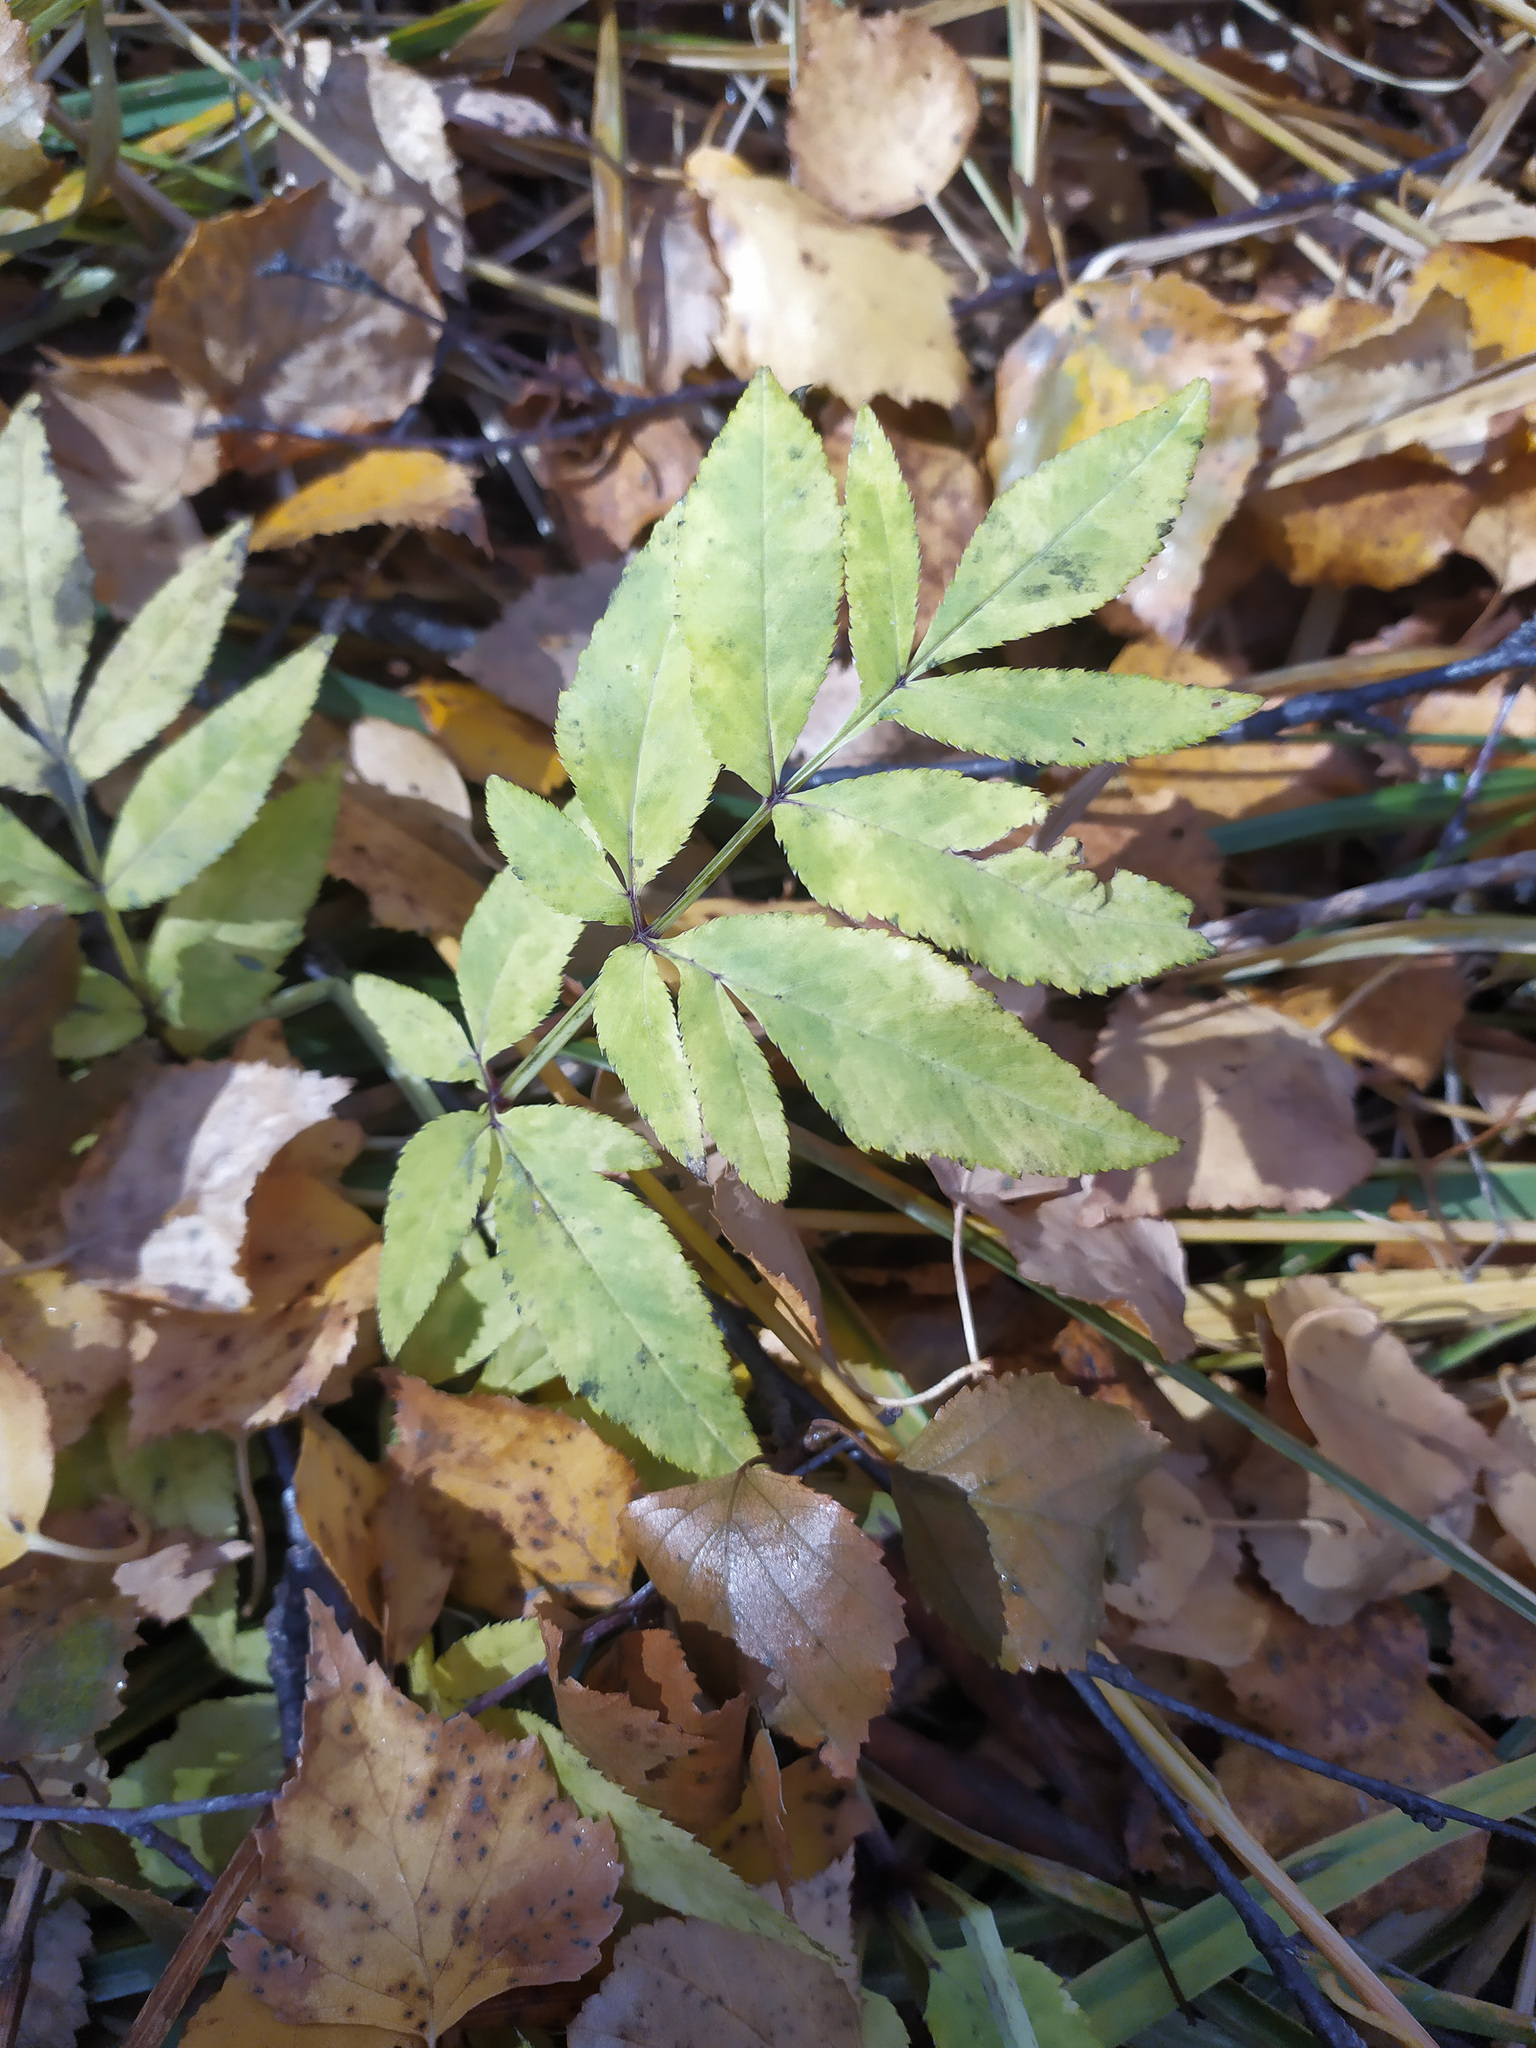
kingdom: Plantae
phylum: Tracheophyta
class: Magnoliopsida
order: Apiales
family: Apiaceae
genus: Angelica
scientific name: Angelica sylvestris
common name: Wild angelica
